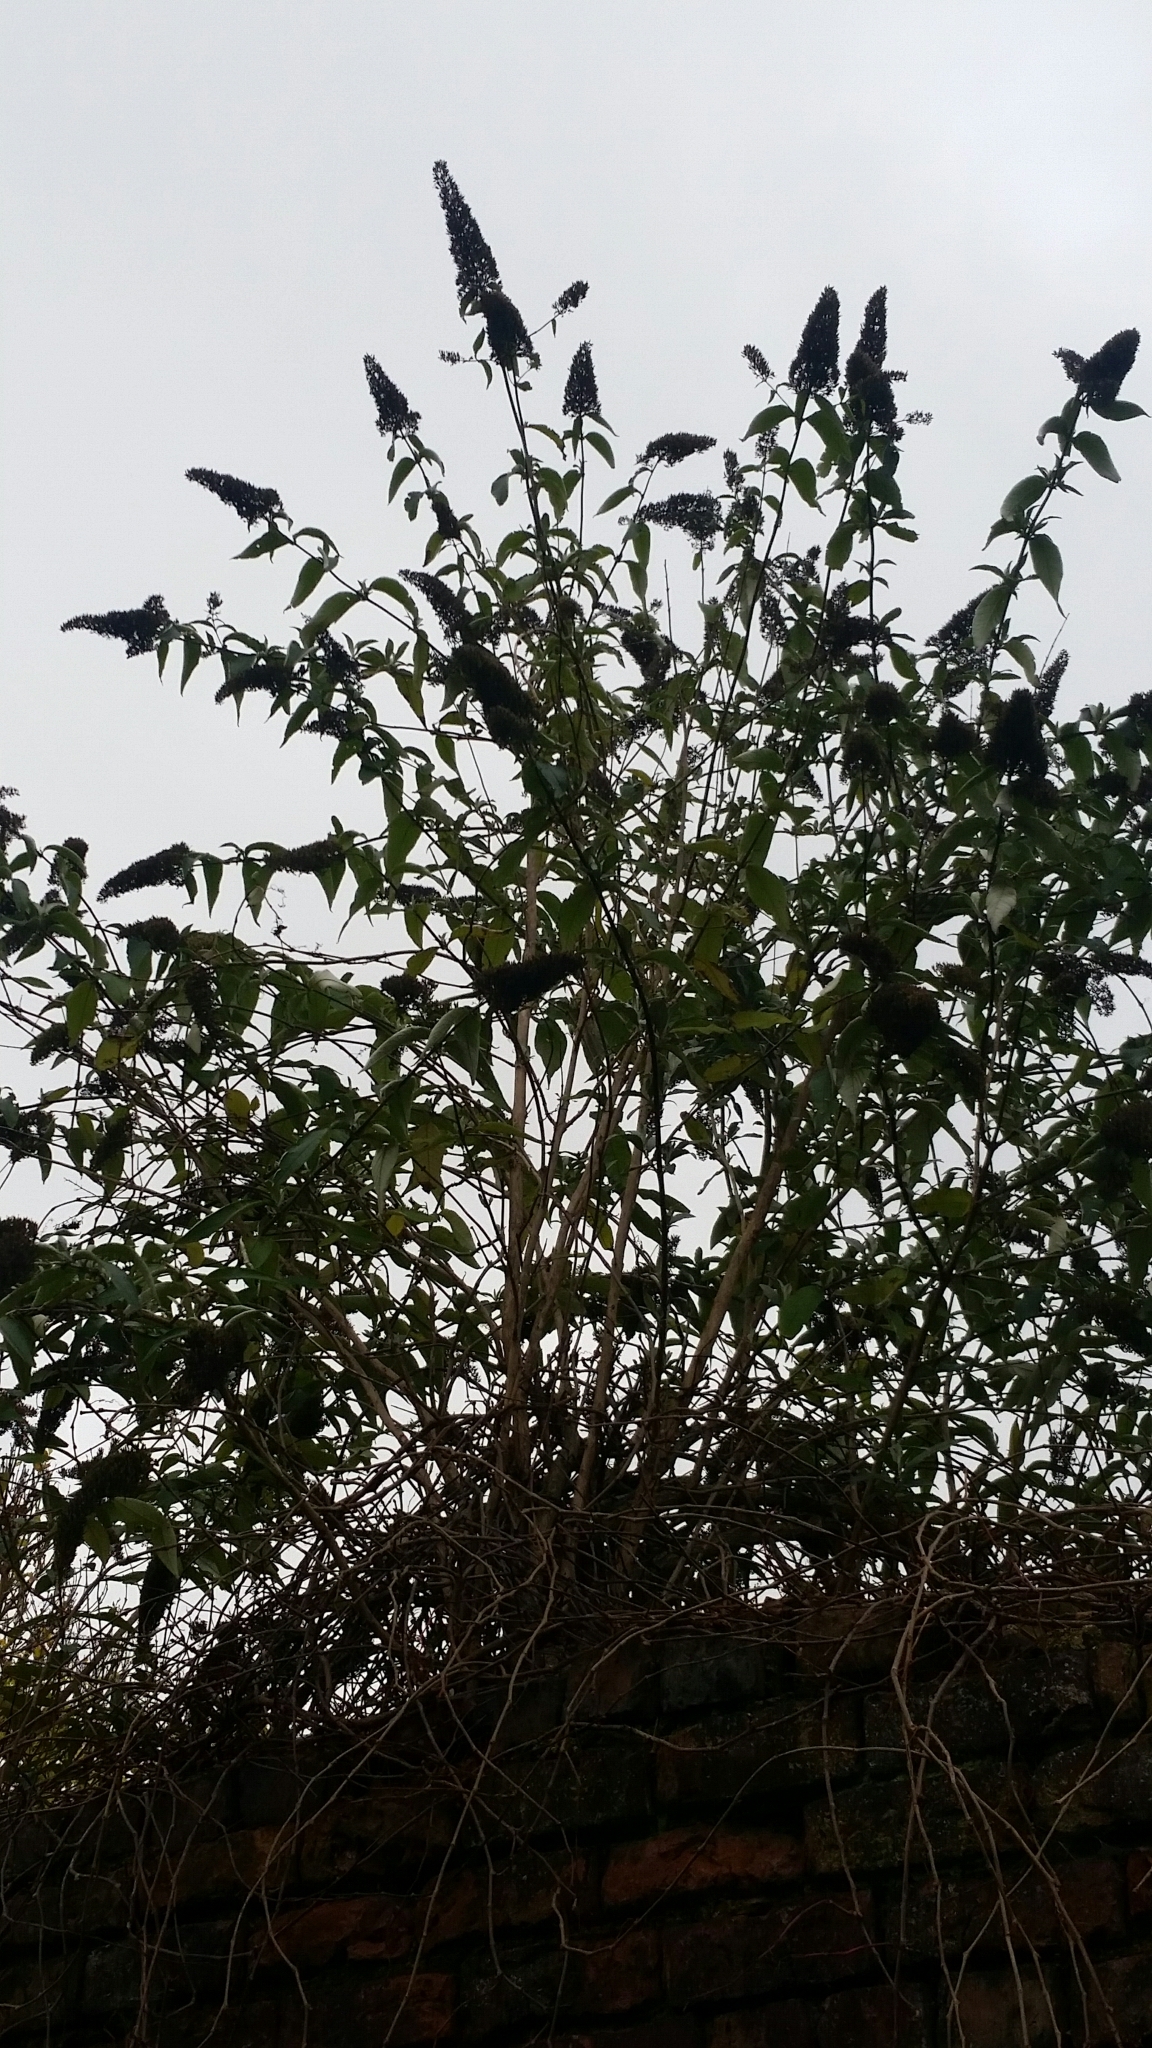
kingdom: Plantae
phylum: Tracheophyta
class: Magnoliopsida
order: Lamiales
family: Scrophulariaceae
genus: Buddleja
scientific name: Buddleja davidii
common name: Butterfly-bush
